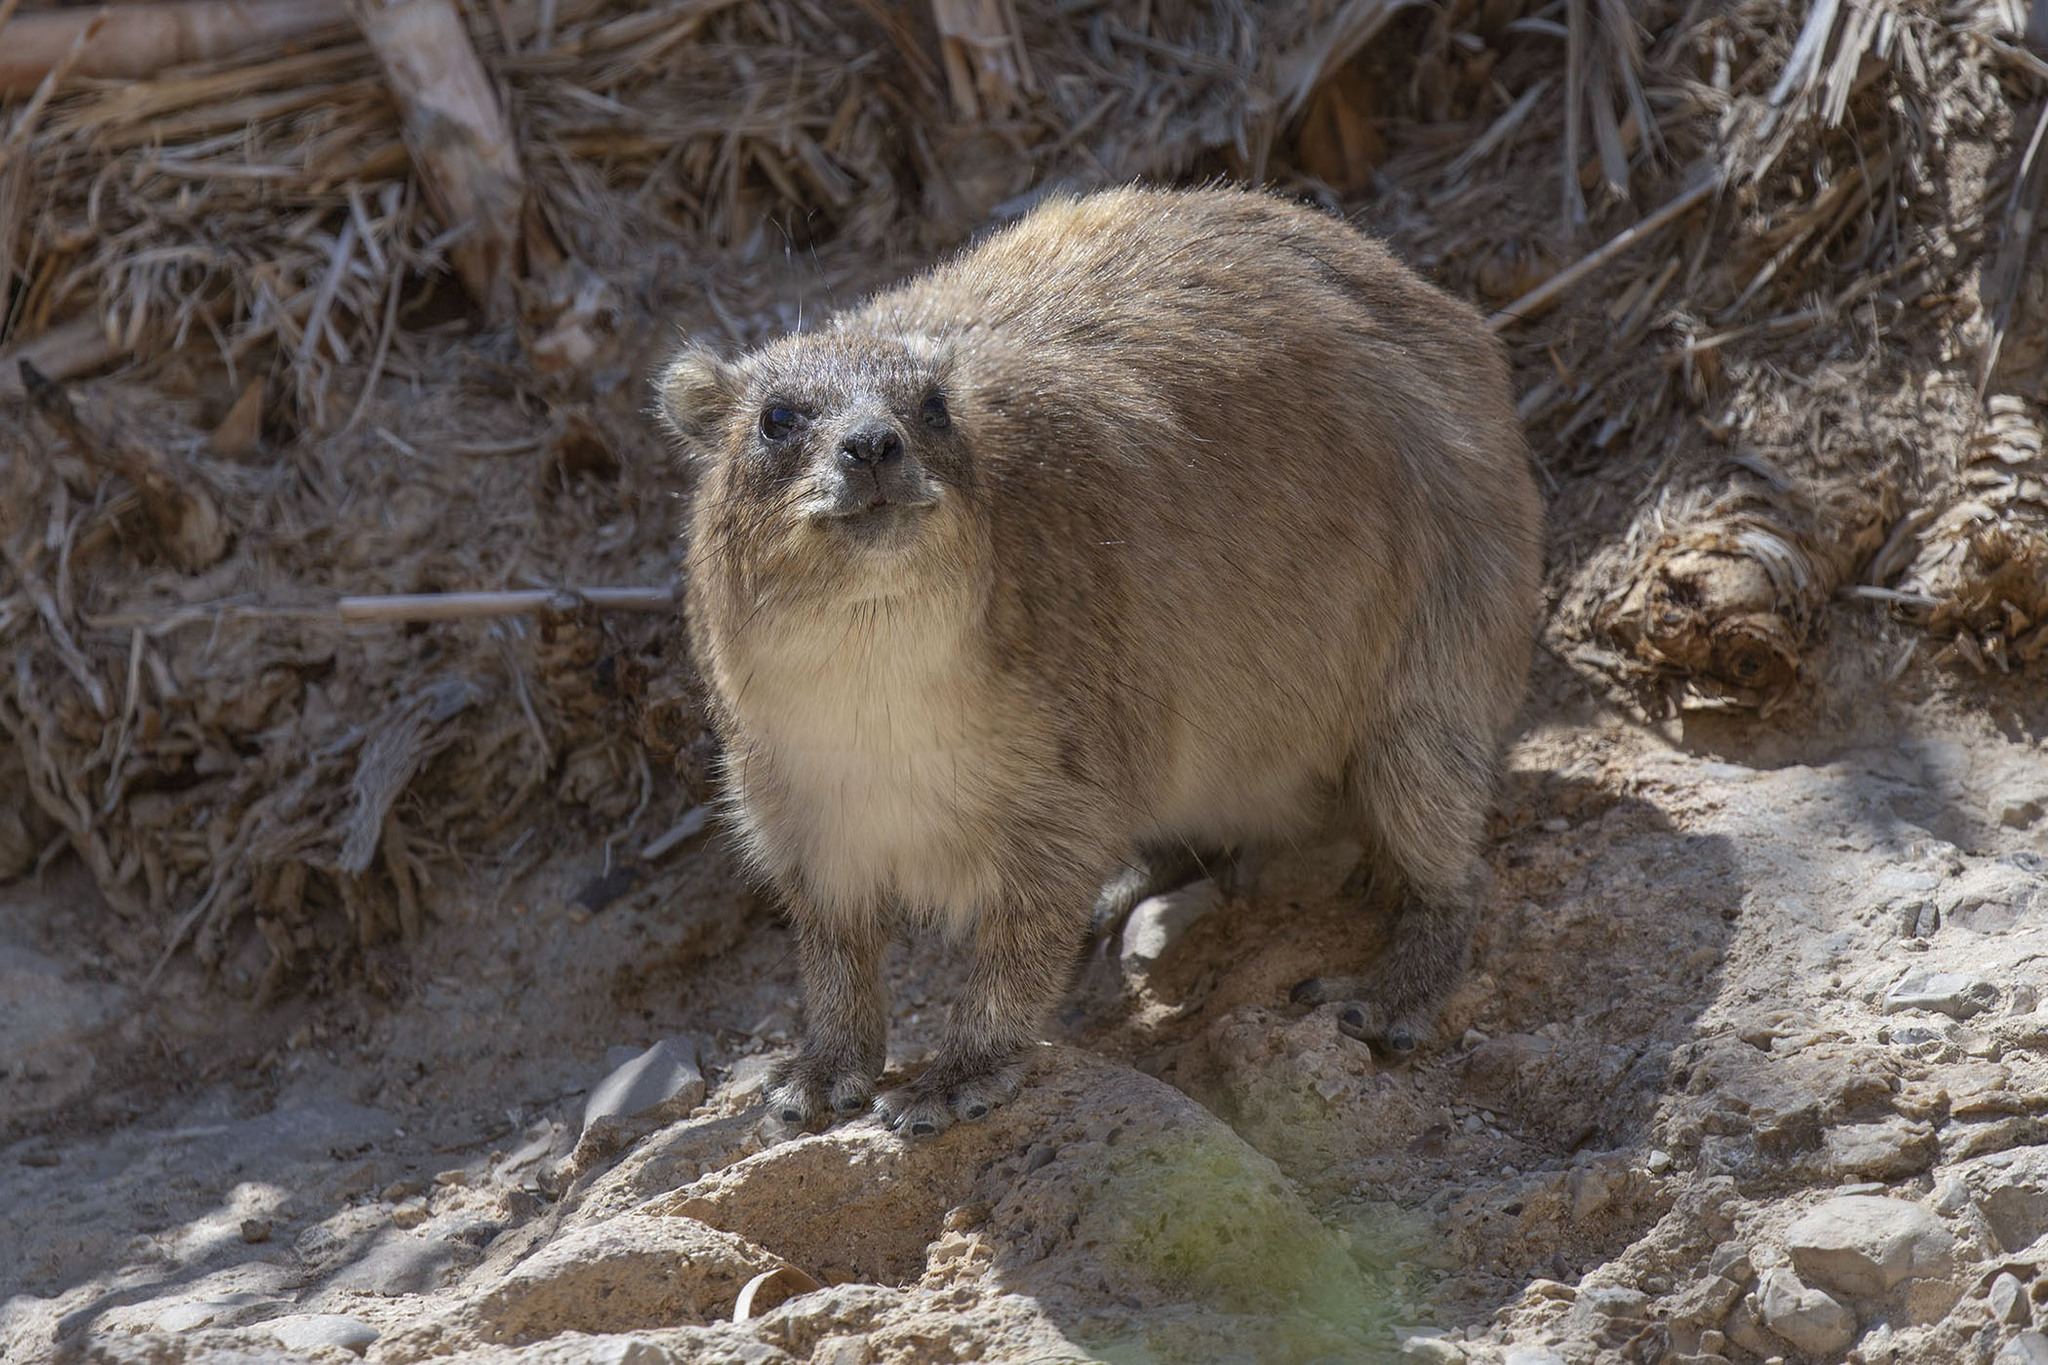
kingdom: Animalia
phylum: Chordata
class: Mammalia
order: Hyracoidea
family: Procaviidae
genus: Procavia
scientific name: Procavia capensis
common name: Rock hyrax
